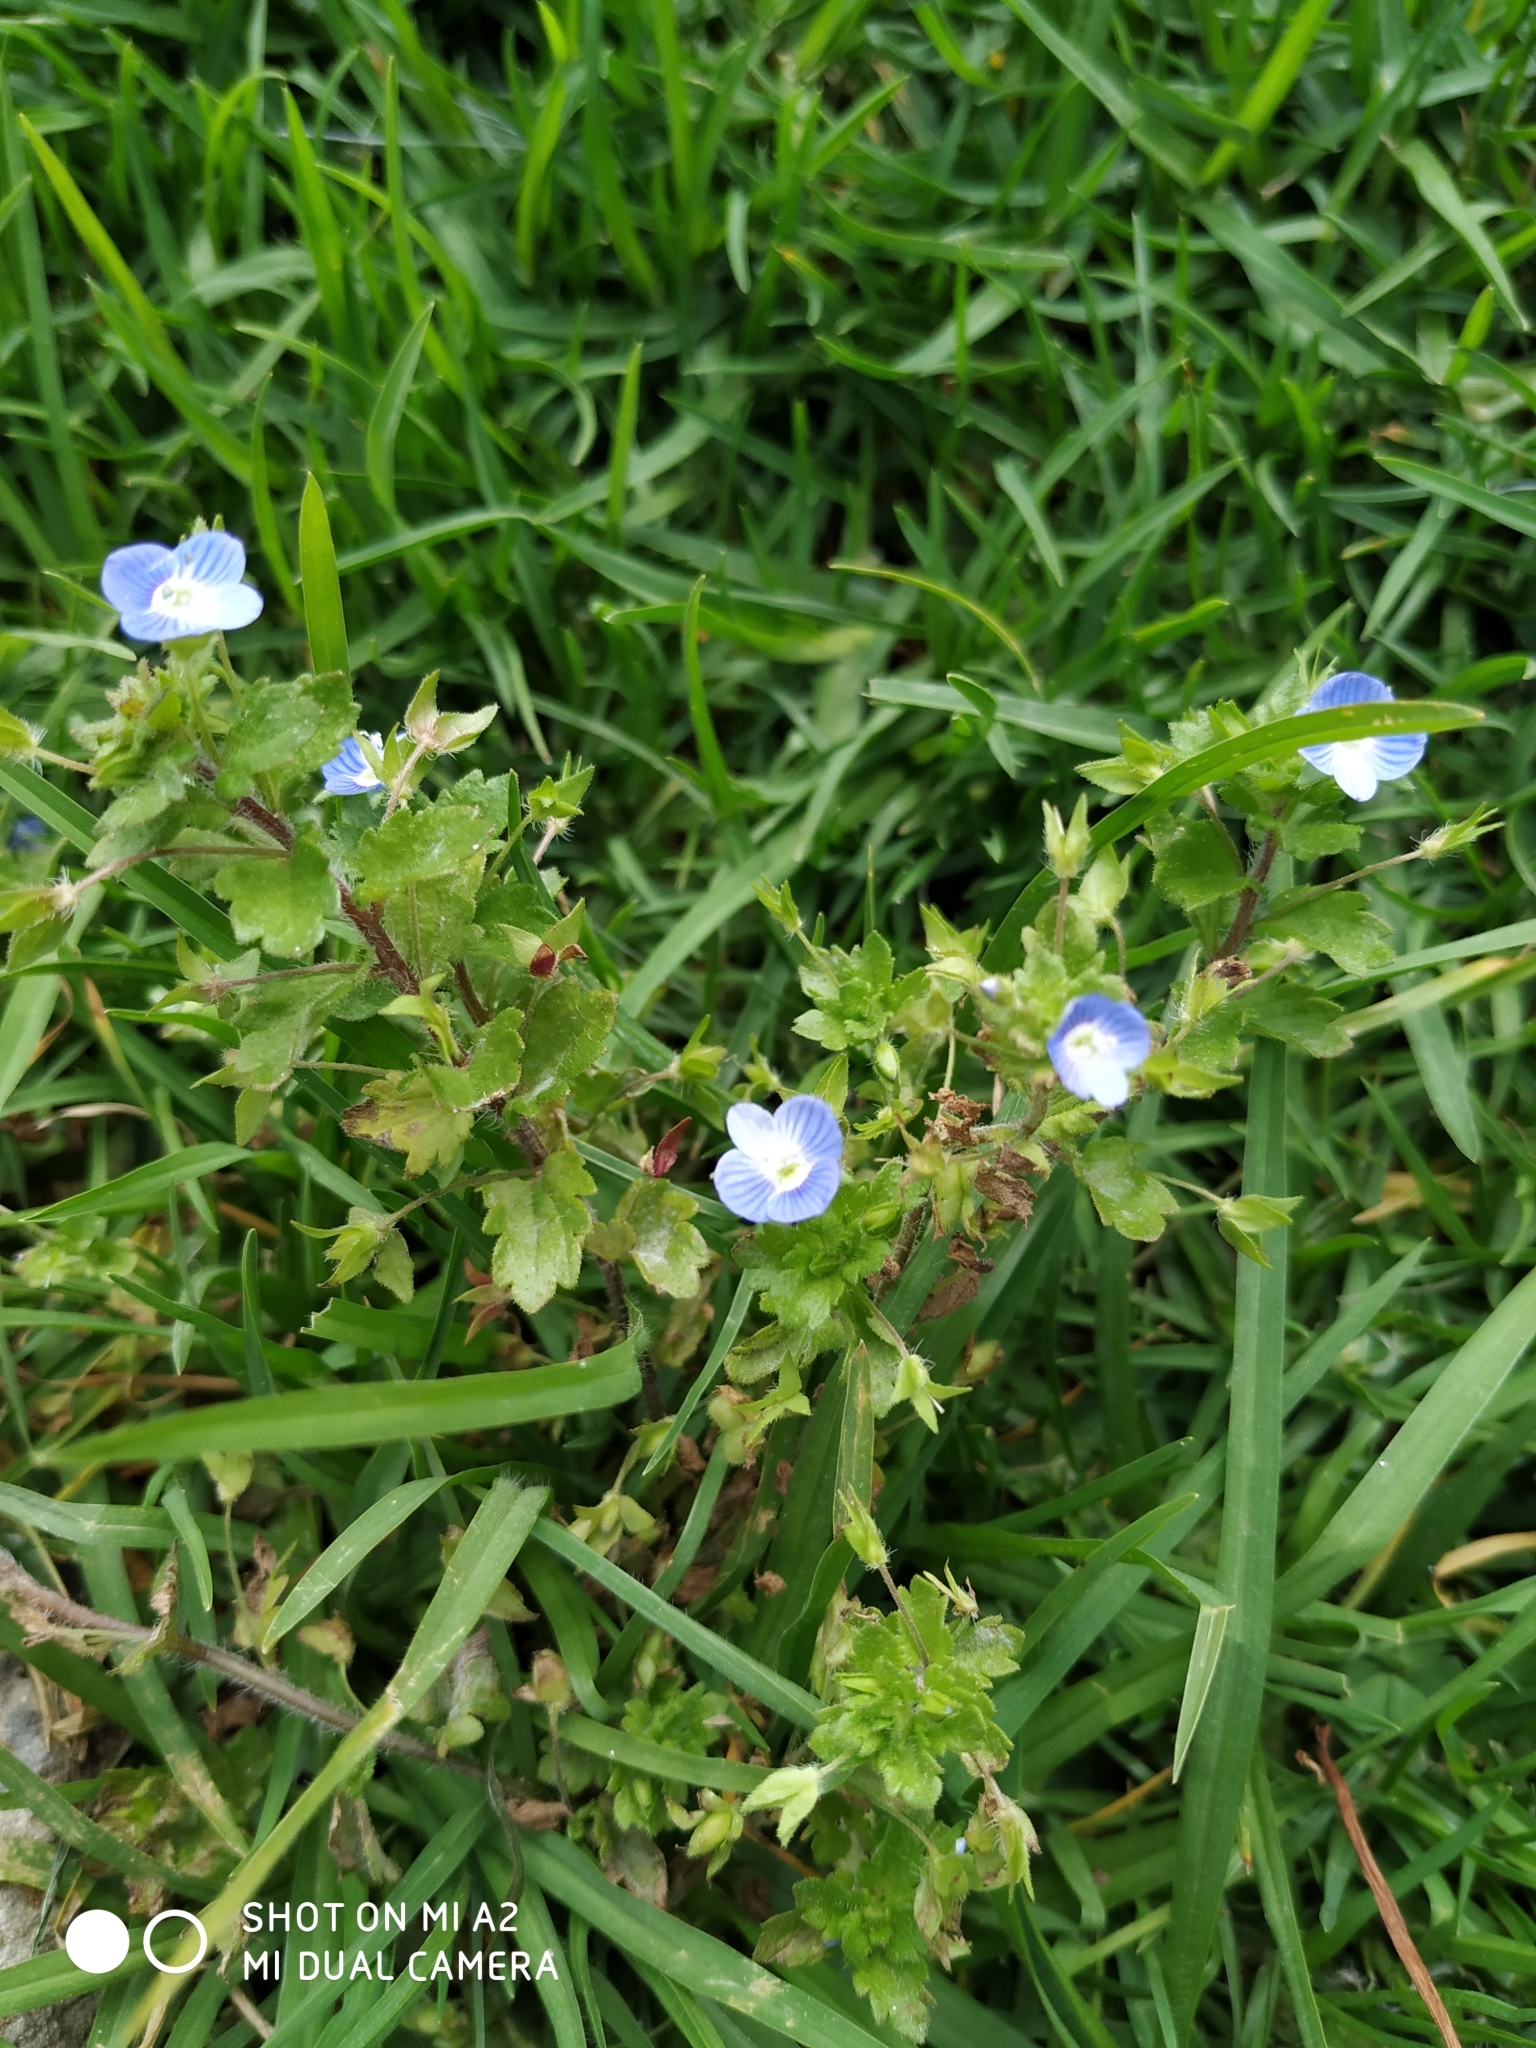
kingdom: Plantae
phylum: Tracheophyta
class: Magnoliopsida
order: Lamiales
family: Plantaginaceae
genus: Veronica
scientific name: Veronica persica
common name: Common field-speedwell
